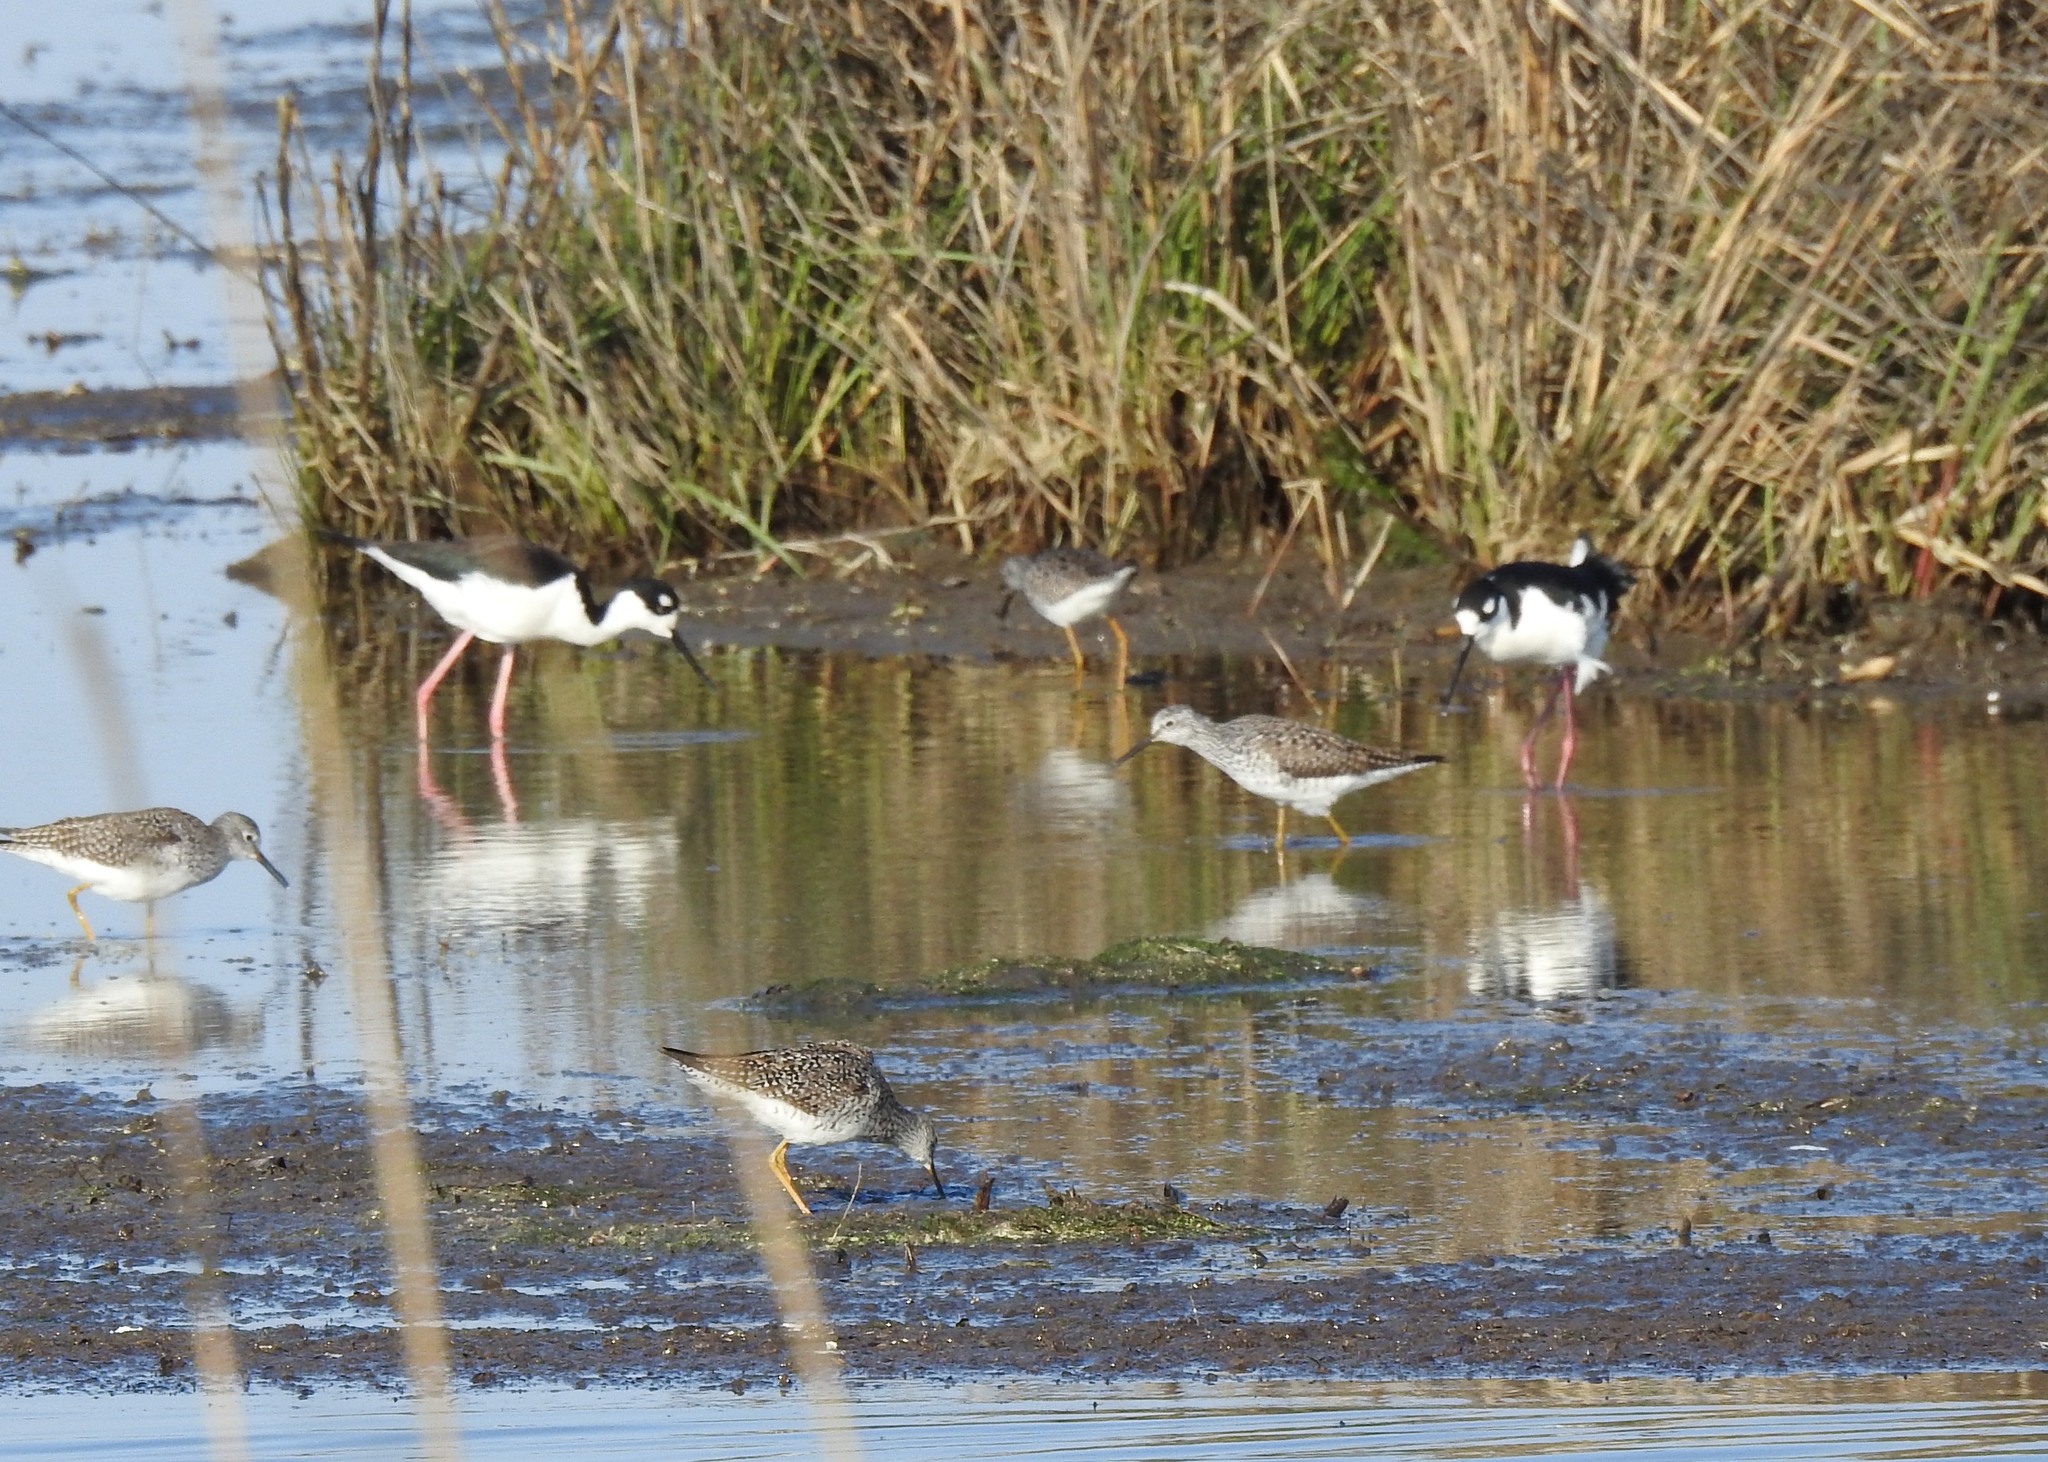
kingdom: Animalia
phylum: Chordata
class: Aves
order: Charadriiformes
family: Recurvirostridae
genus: Himantopus
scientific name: Himantopus mexicanus
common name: Black-necked stilt
